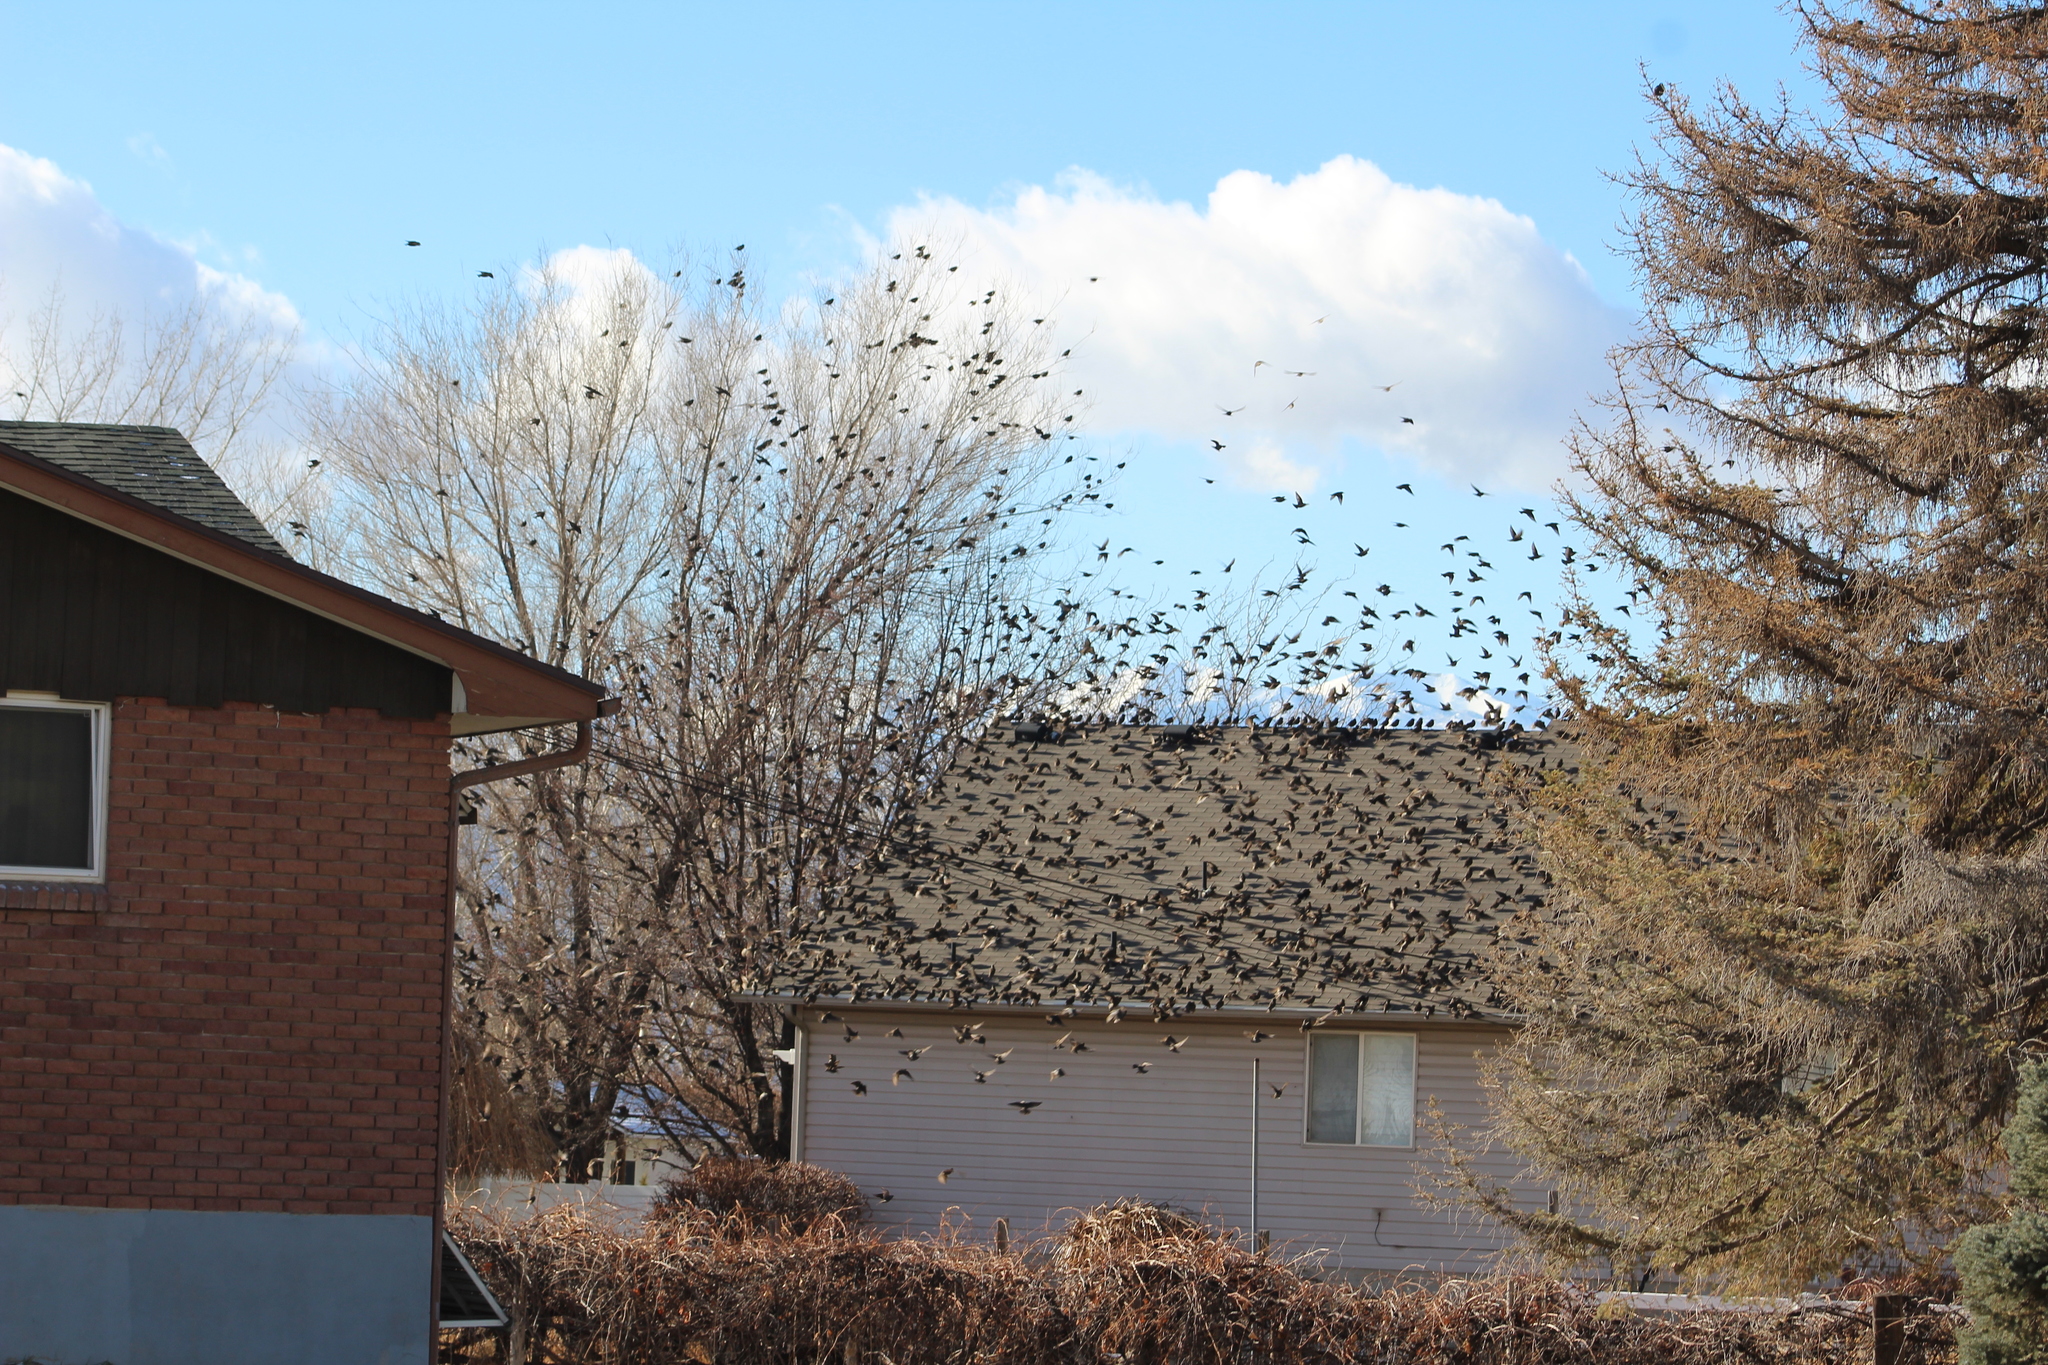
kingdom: Animalia
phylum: Chordata
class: Aves
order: Passeriformes
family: Sturnidae
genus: Sturnus
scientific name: Sturnus vulgaris
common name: Common starling
